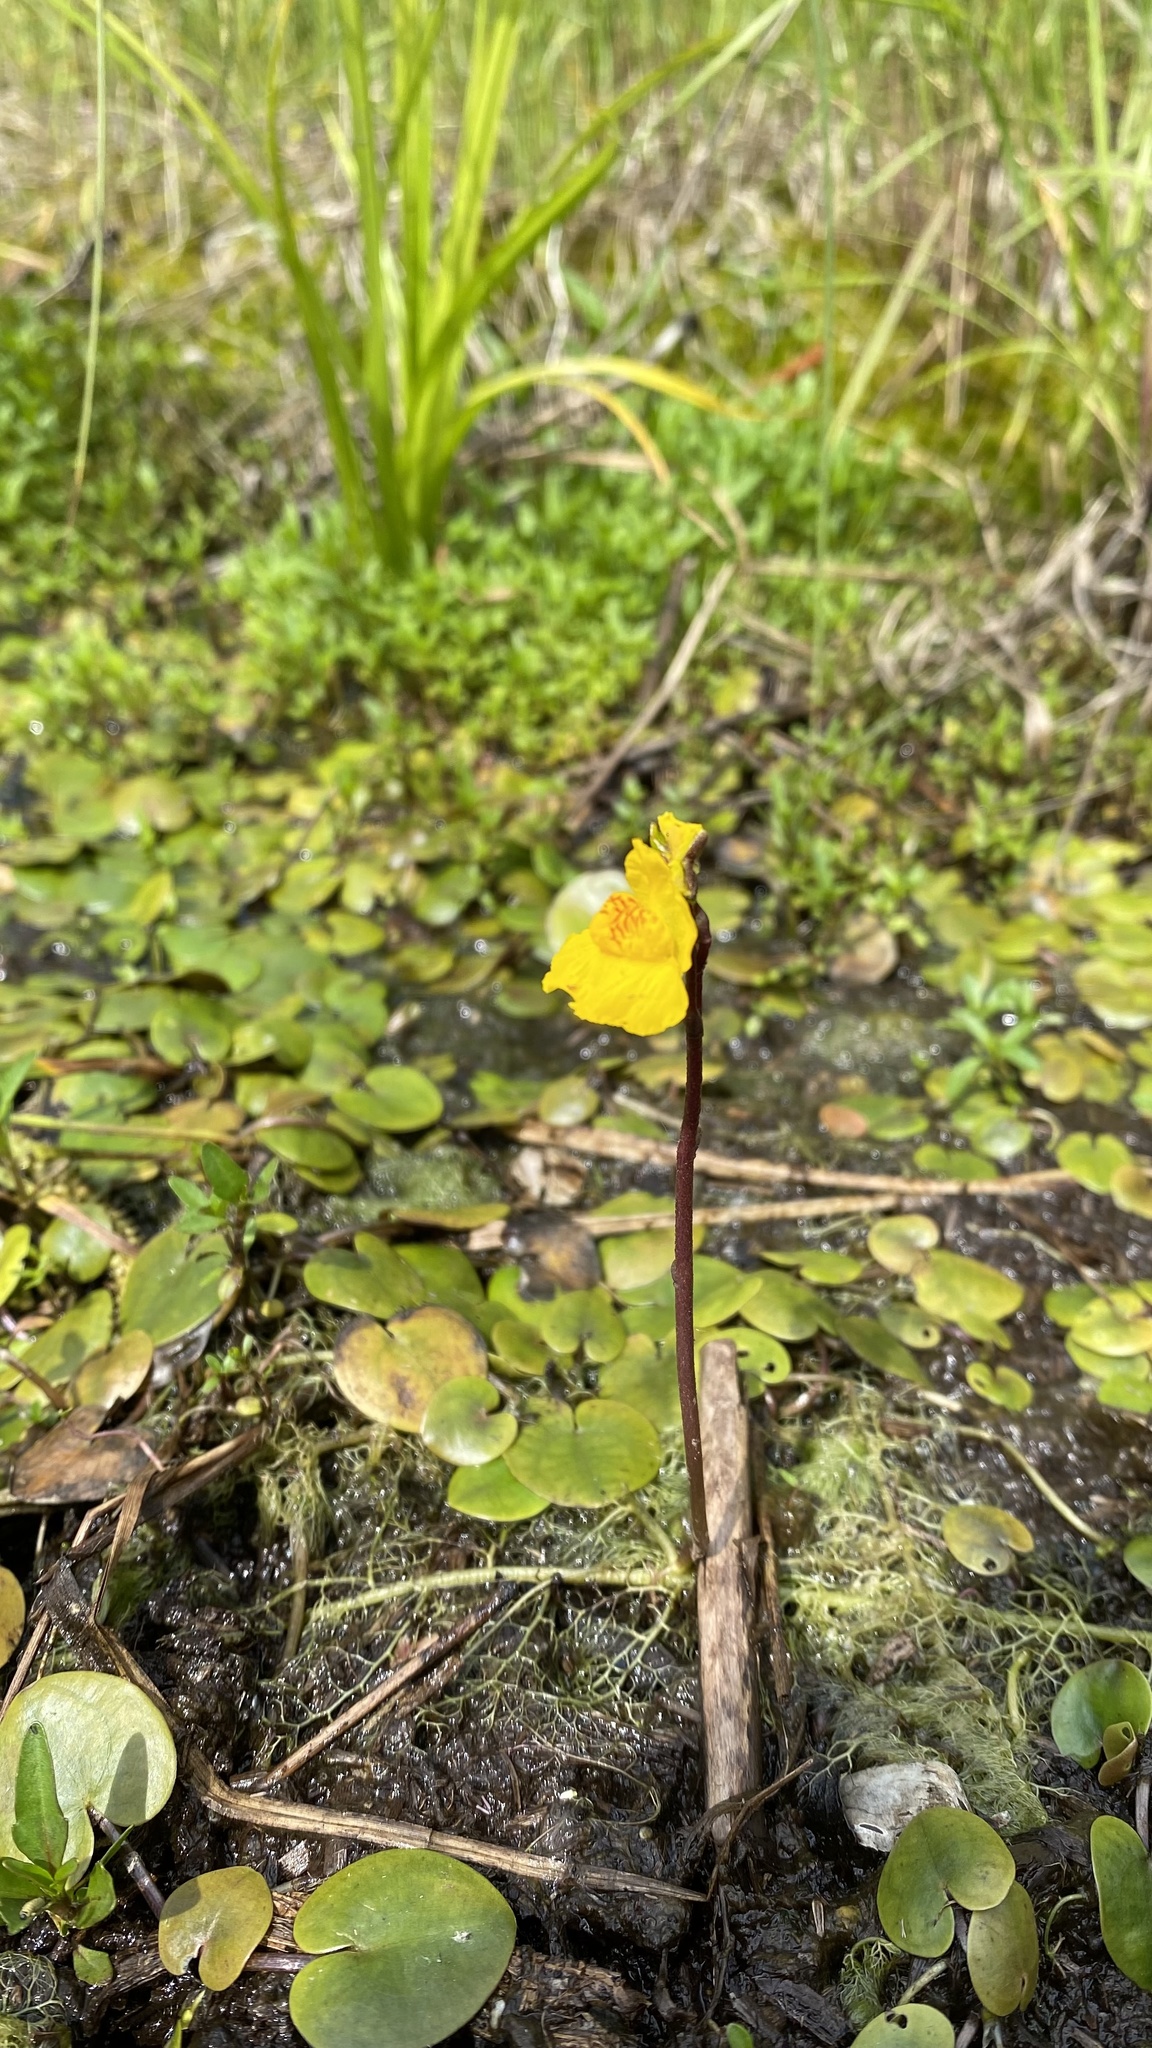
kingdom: Plantae
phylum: Tracheophyta
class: Magnoliopsida
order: Lamiales
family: Lentibulariaceae
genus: Utricularia
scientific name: Utricularia australis
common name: Bladderwort
